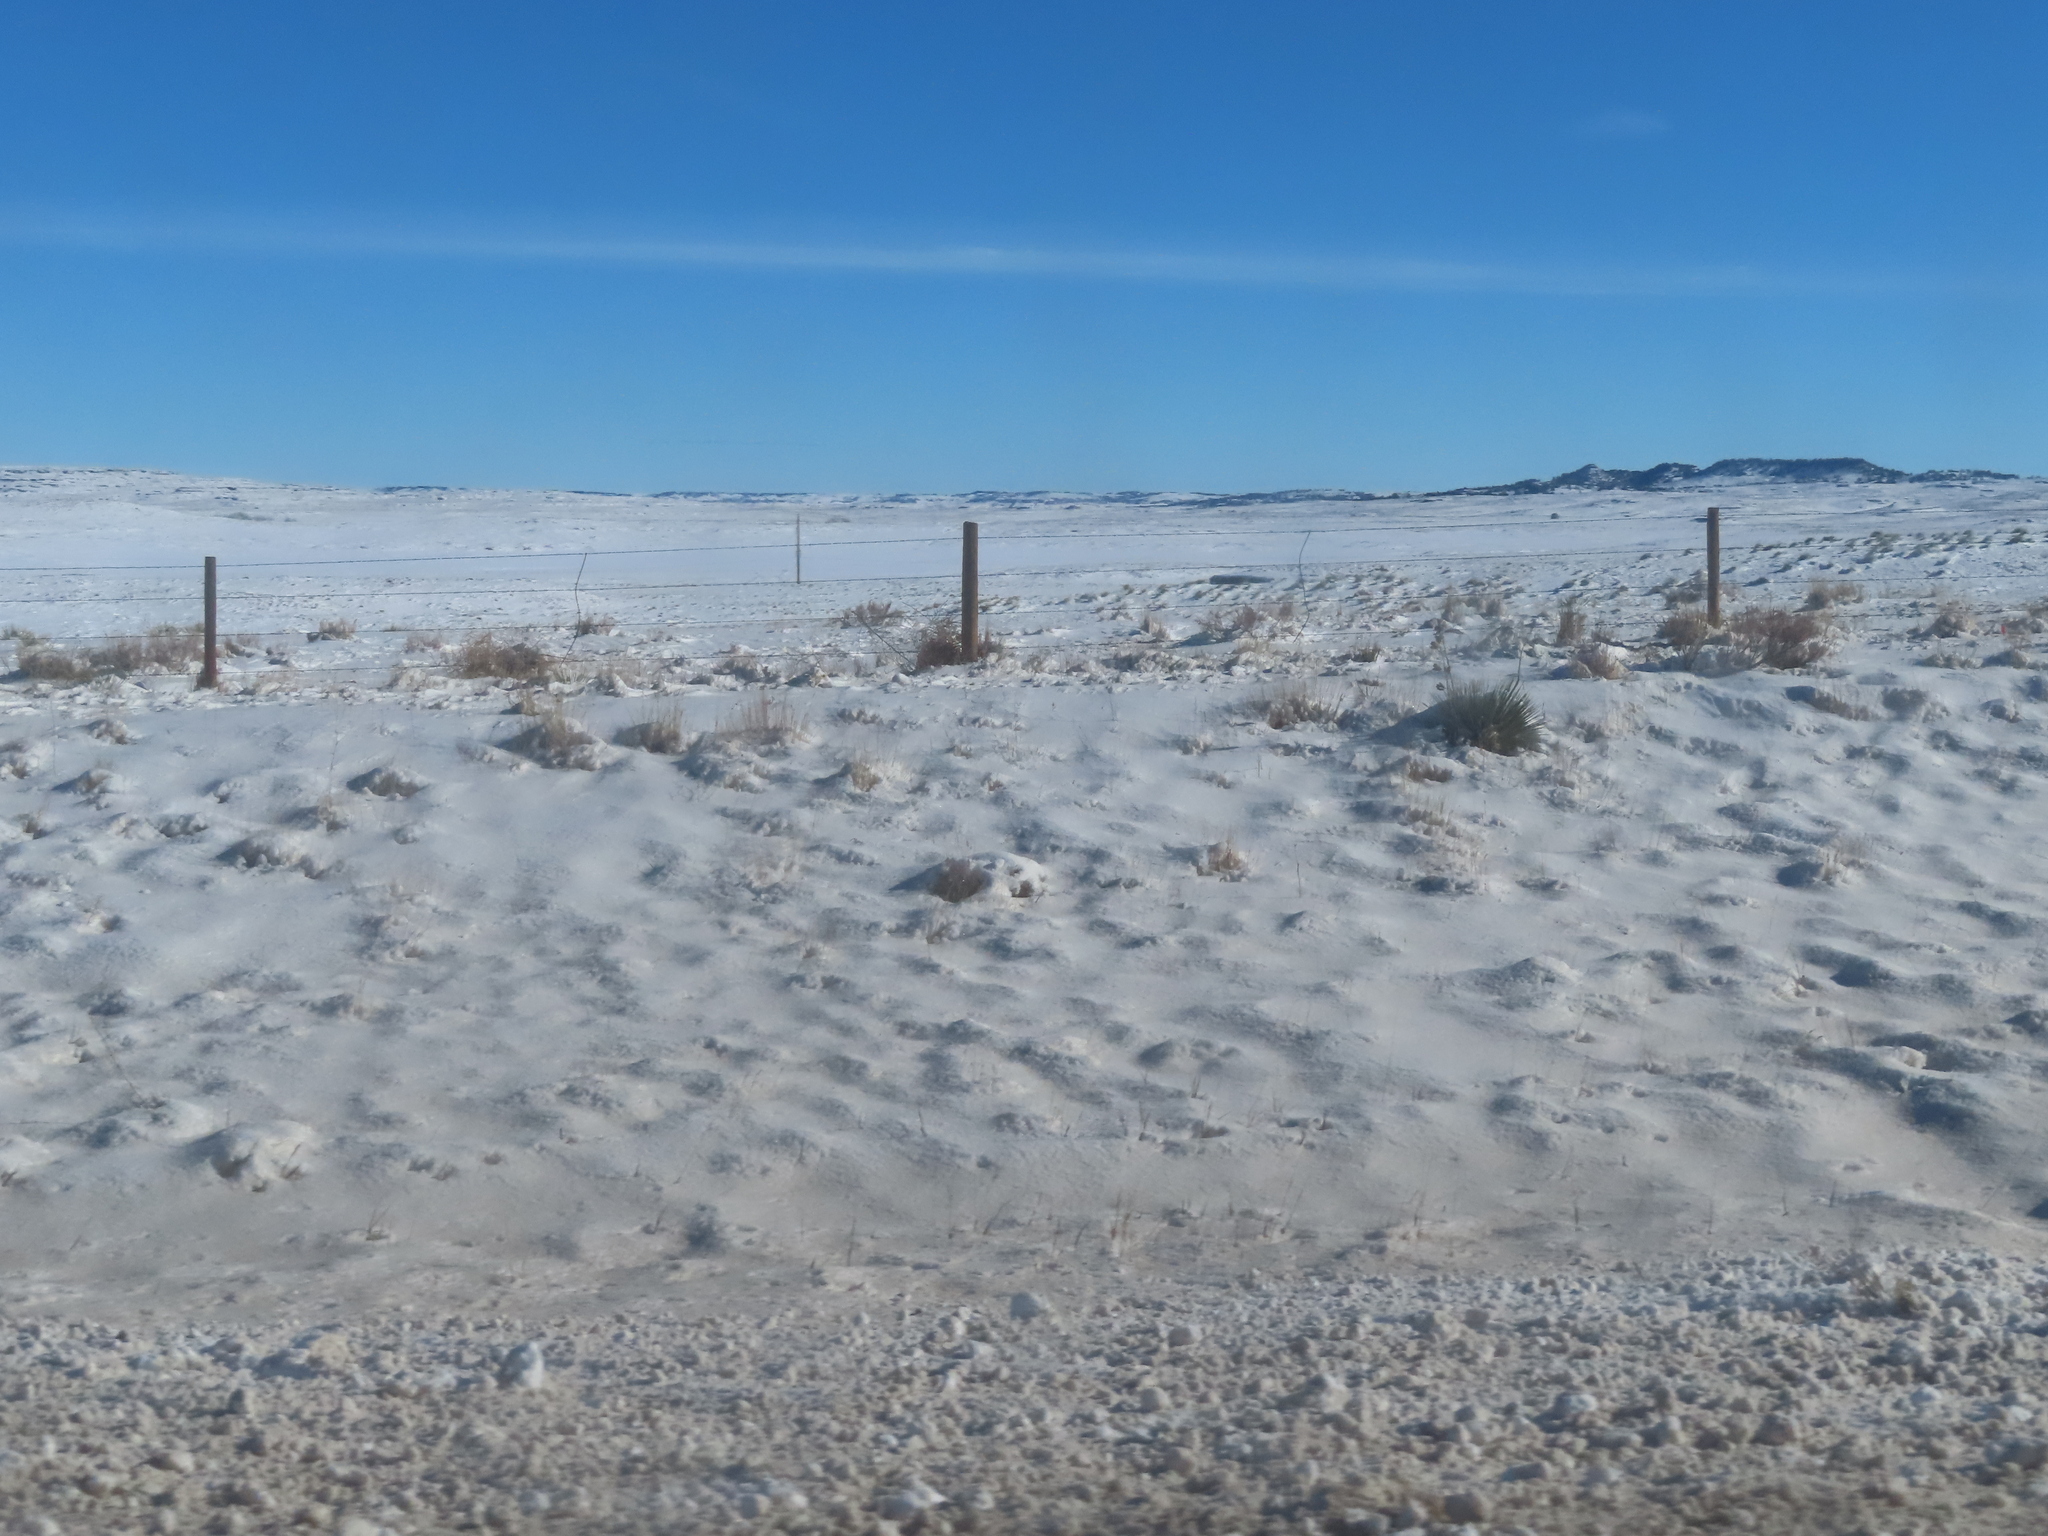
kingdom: Plantae
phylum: Tracheophyta
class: Liliopsida
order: Asparagales
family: Asparagaceae
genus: Yucca
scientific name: Yucca glauca
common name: Great plains yucca
